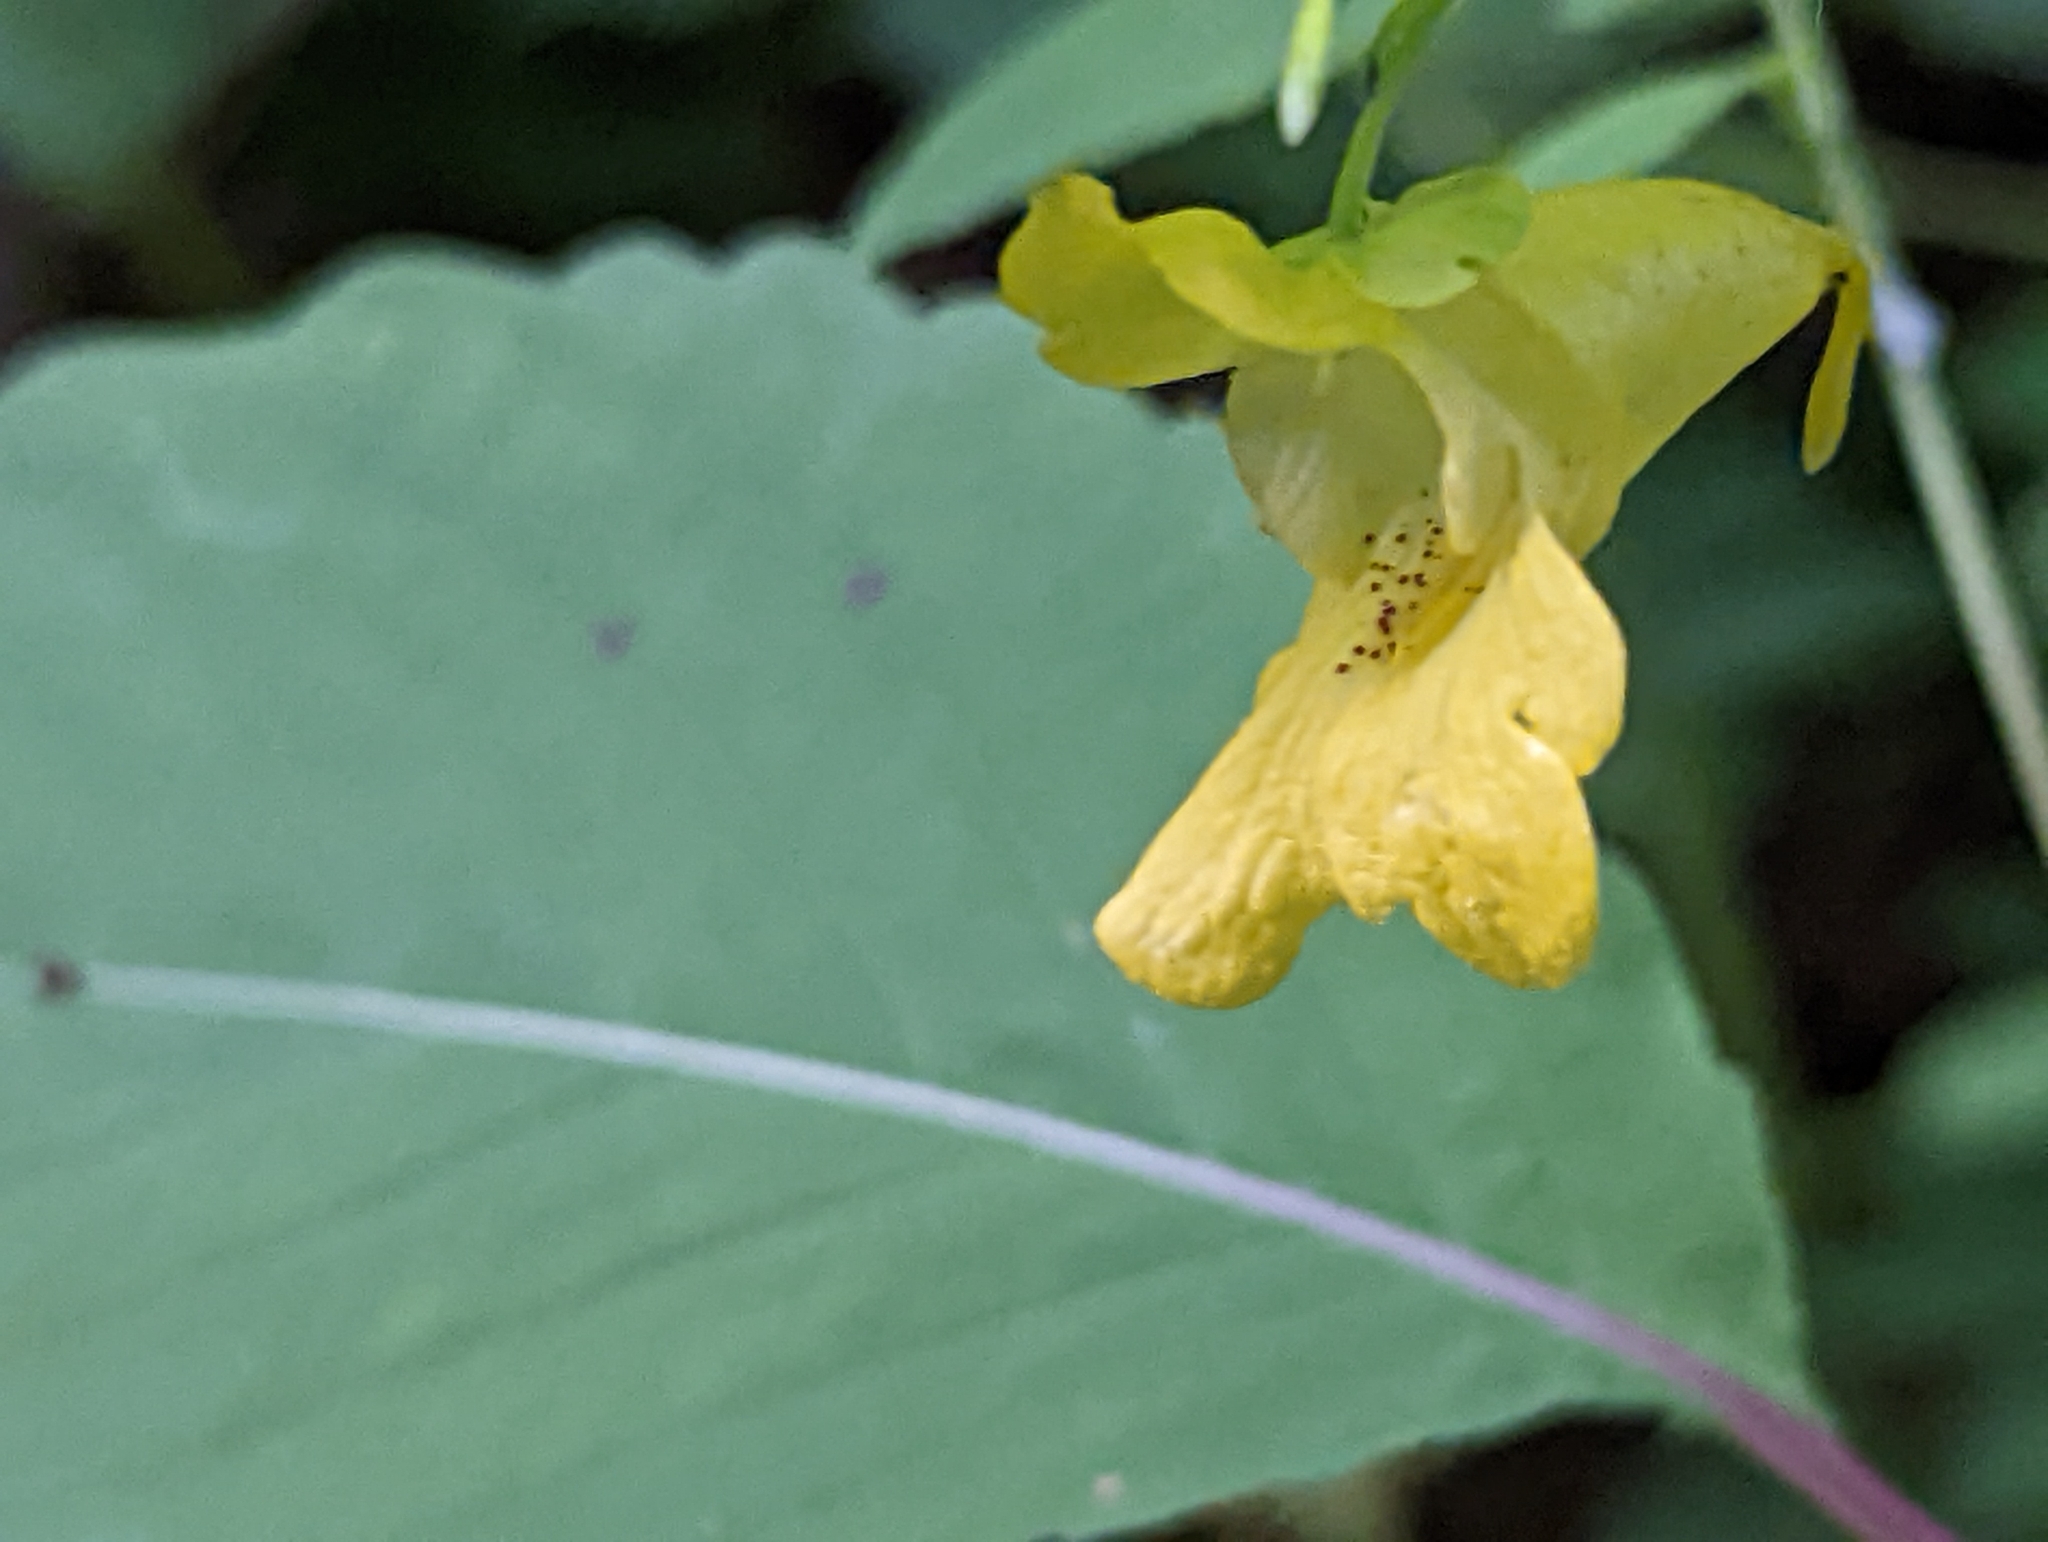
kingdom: Plantae
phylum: Tracheophyta
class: Magnoliopsida
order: Ericales
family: Balsaminaceae
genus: Impatiens
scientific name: Impatiens pallida
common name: Pale snapweed
